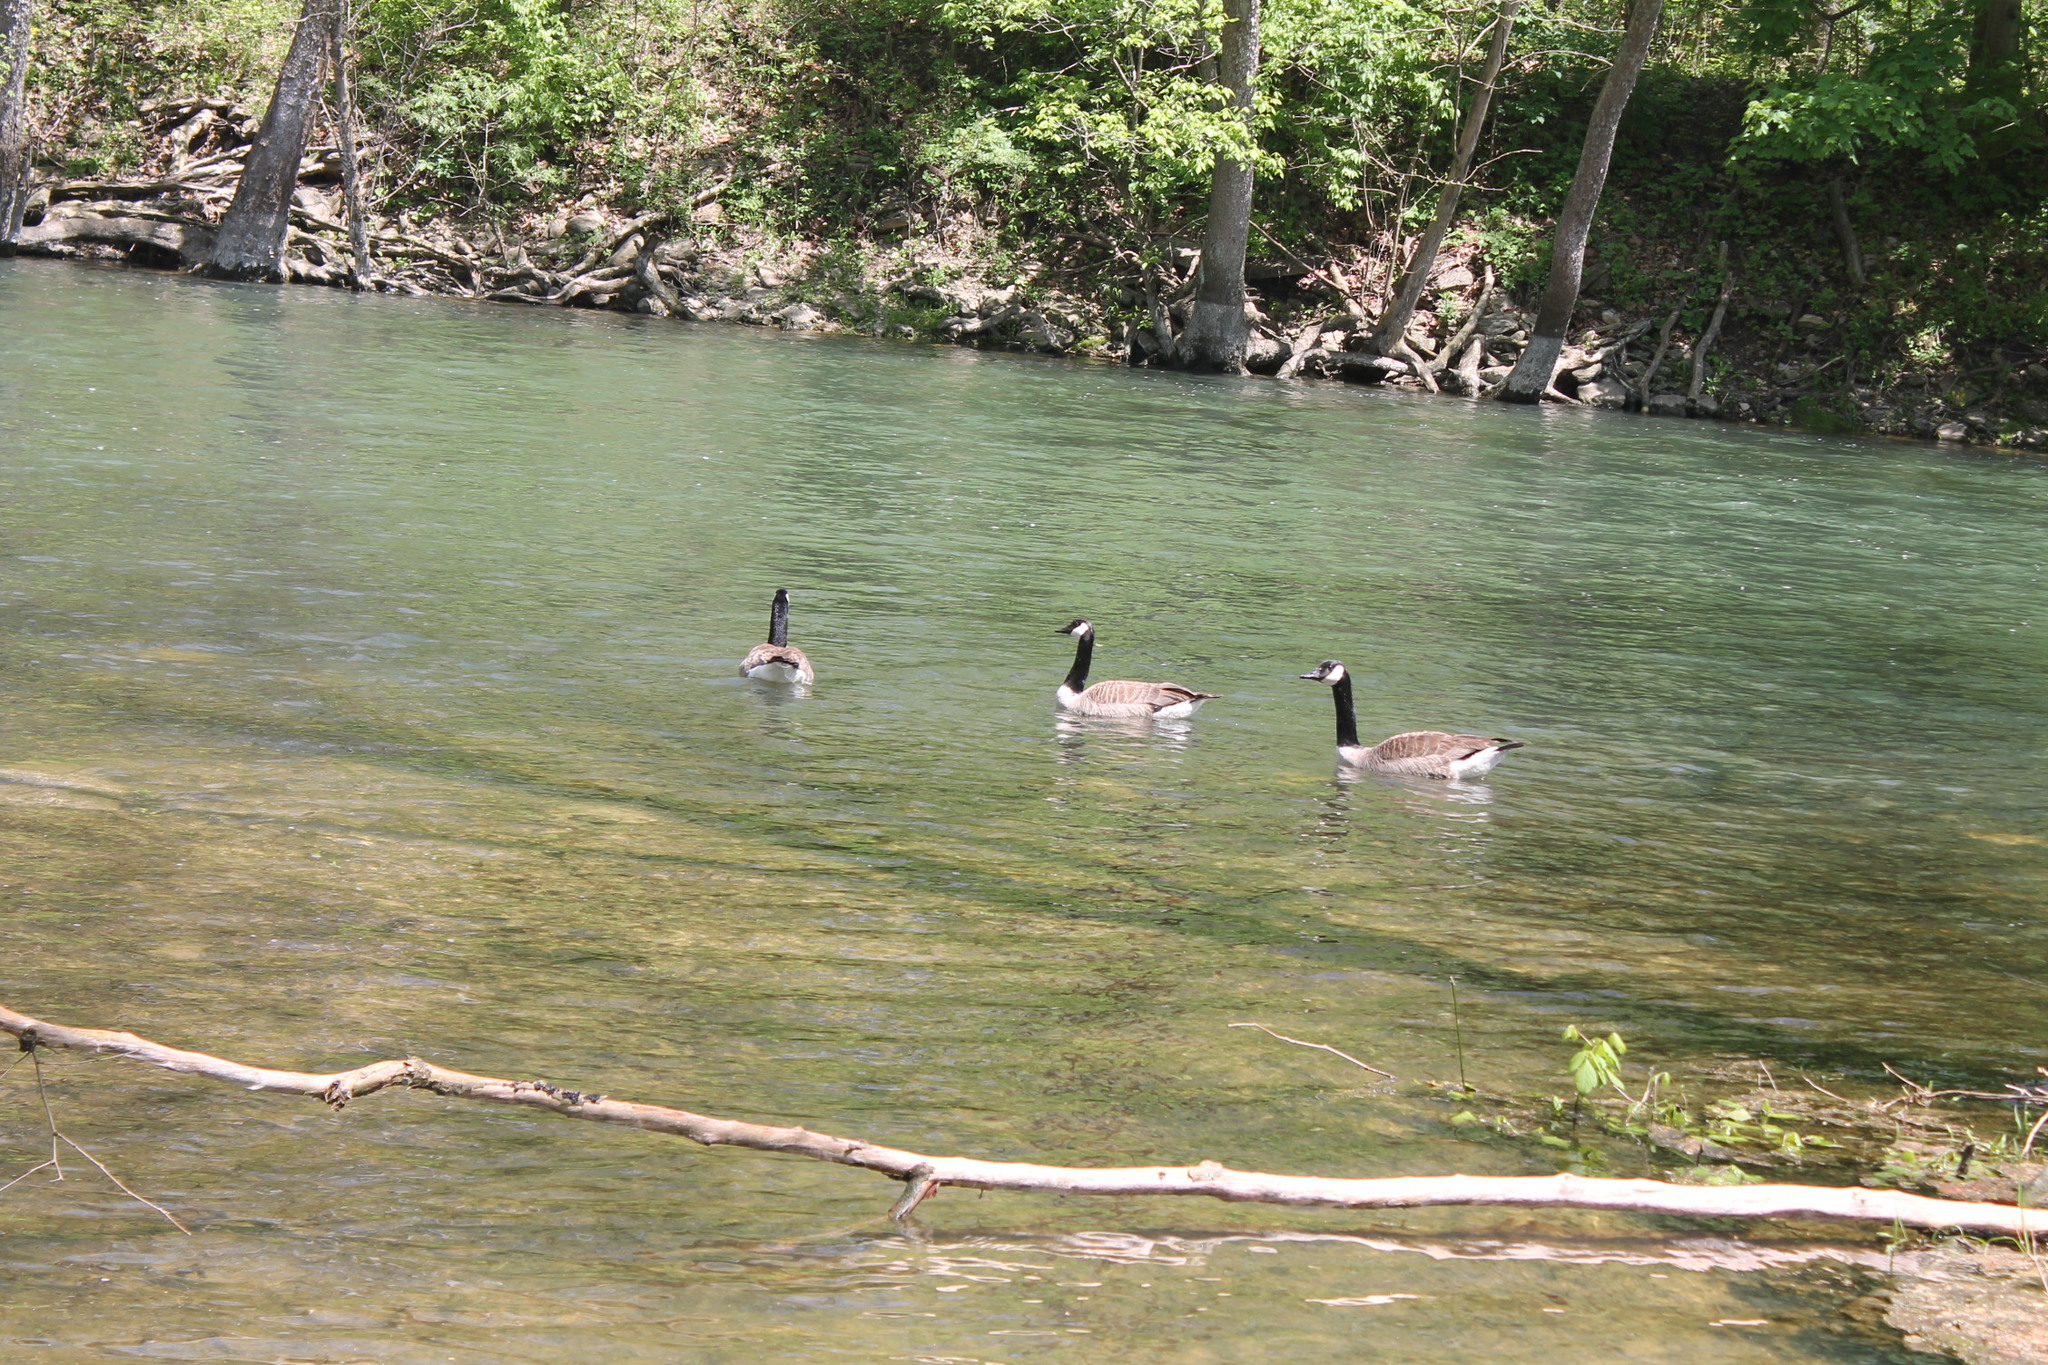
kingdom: Animalia
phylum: Chordata
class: Aves
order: Anseriformes
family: Anatidae
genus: Branta
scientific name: Branta canadensis
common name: Canada goose
